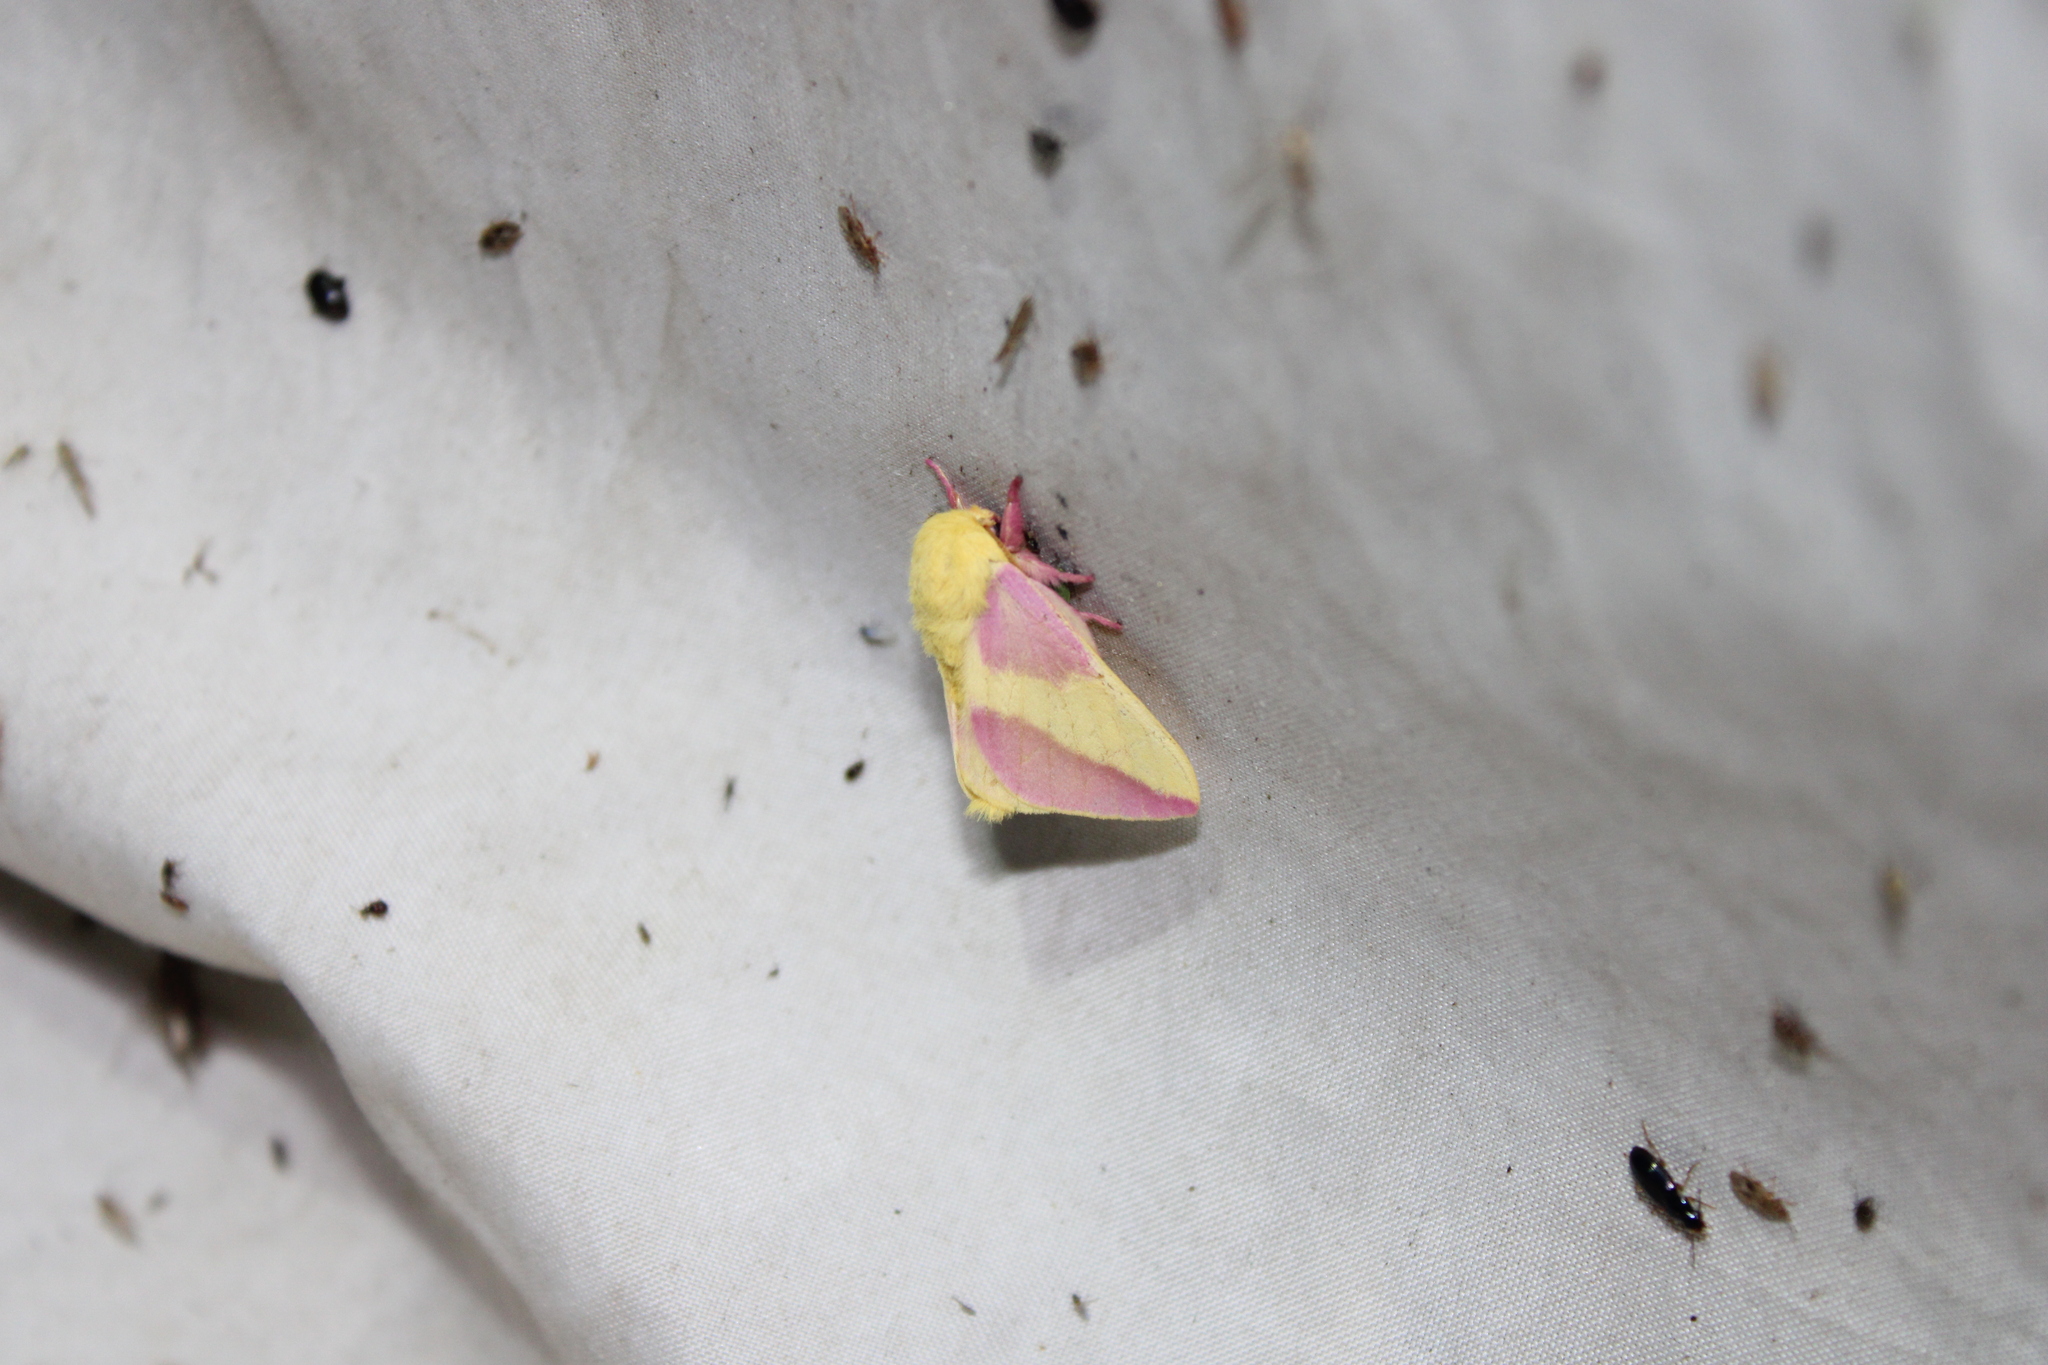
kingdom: Animalia
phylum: Arthropoda
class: Insecta
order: Lepidoptera
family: Saturniidae
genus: Dryocampa
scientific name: Dryocampa rubicunda
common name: Rosy maple moth
